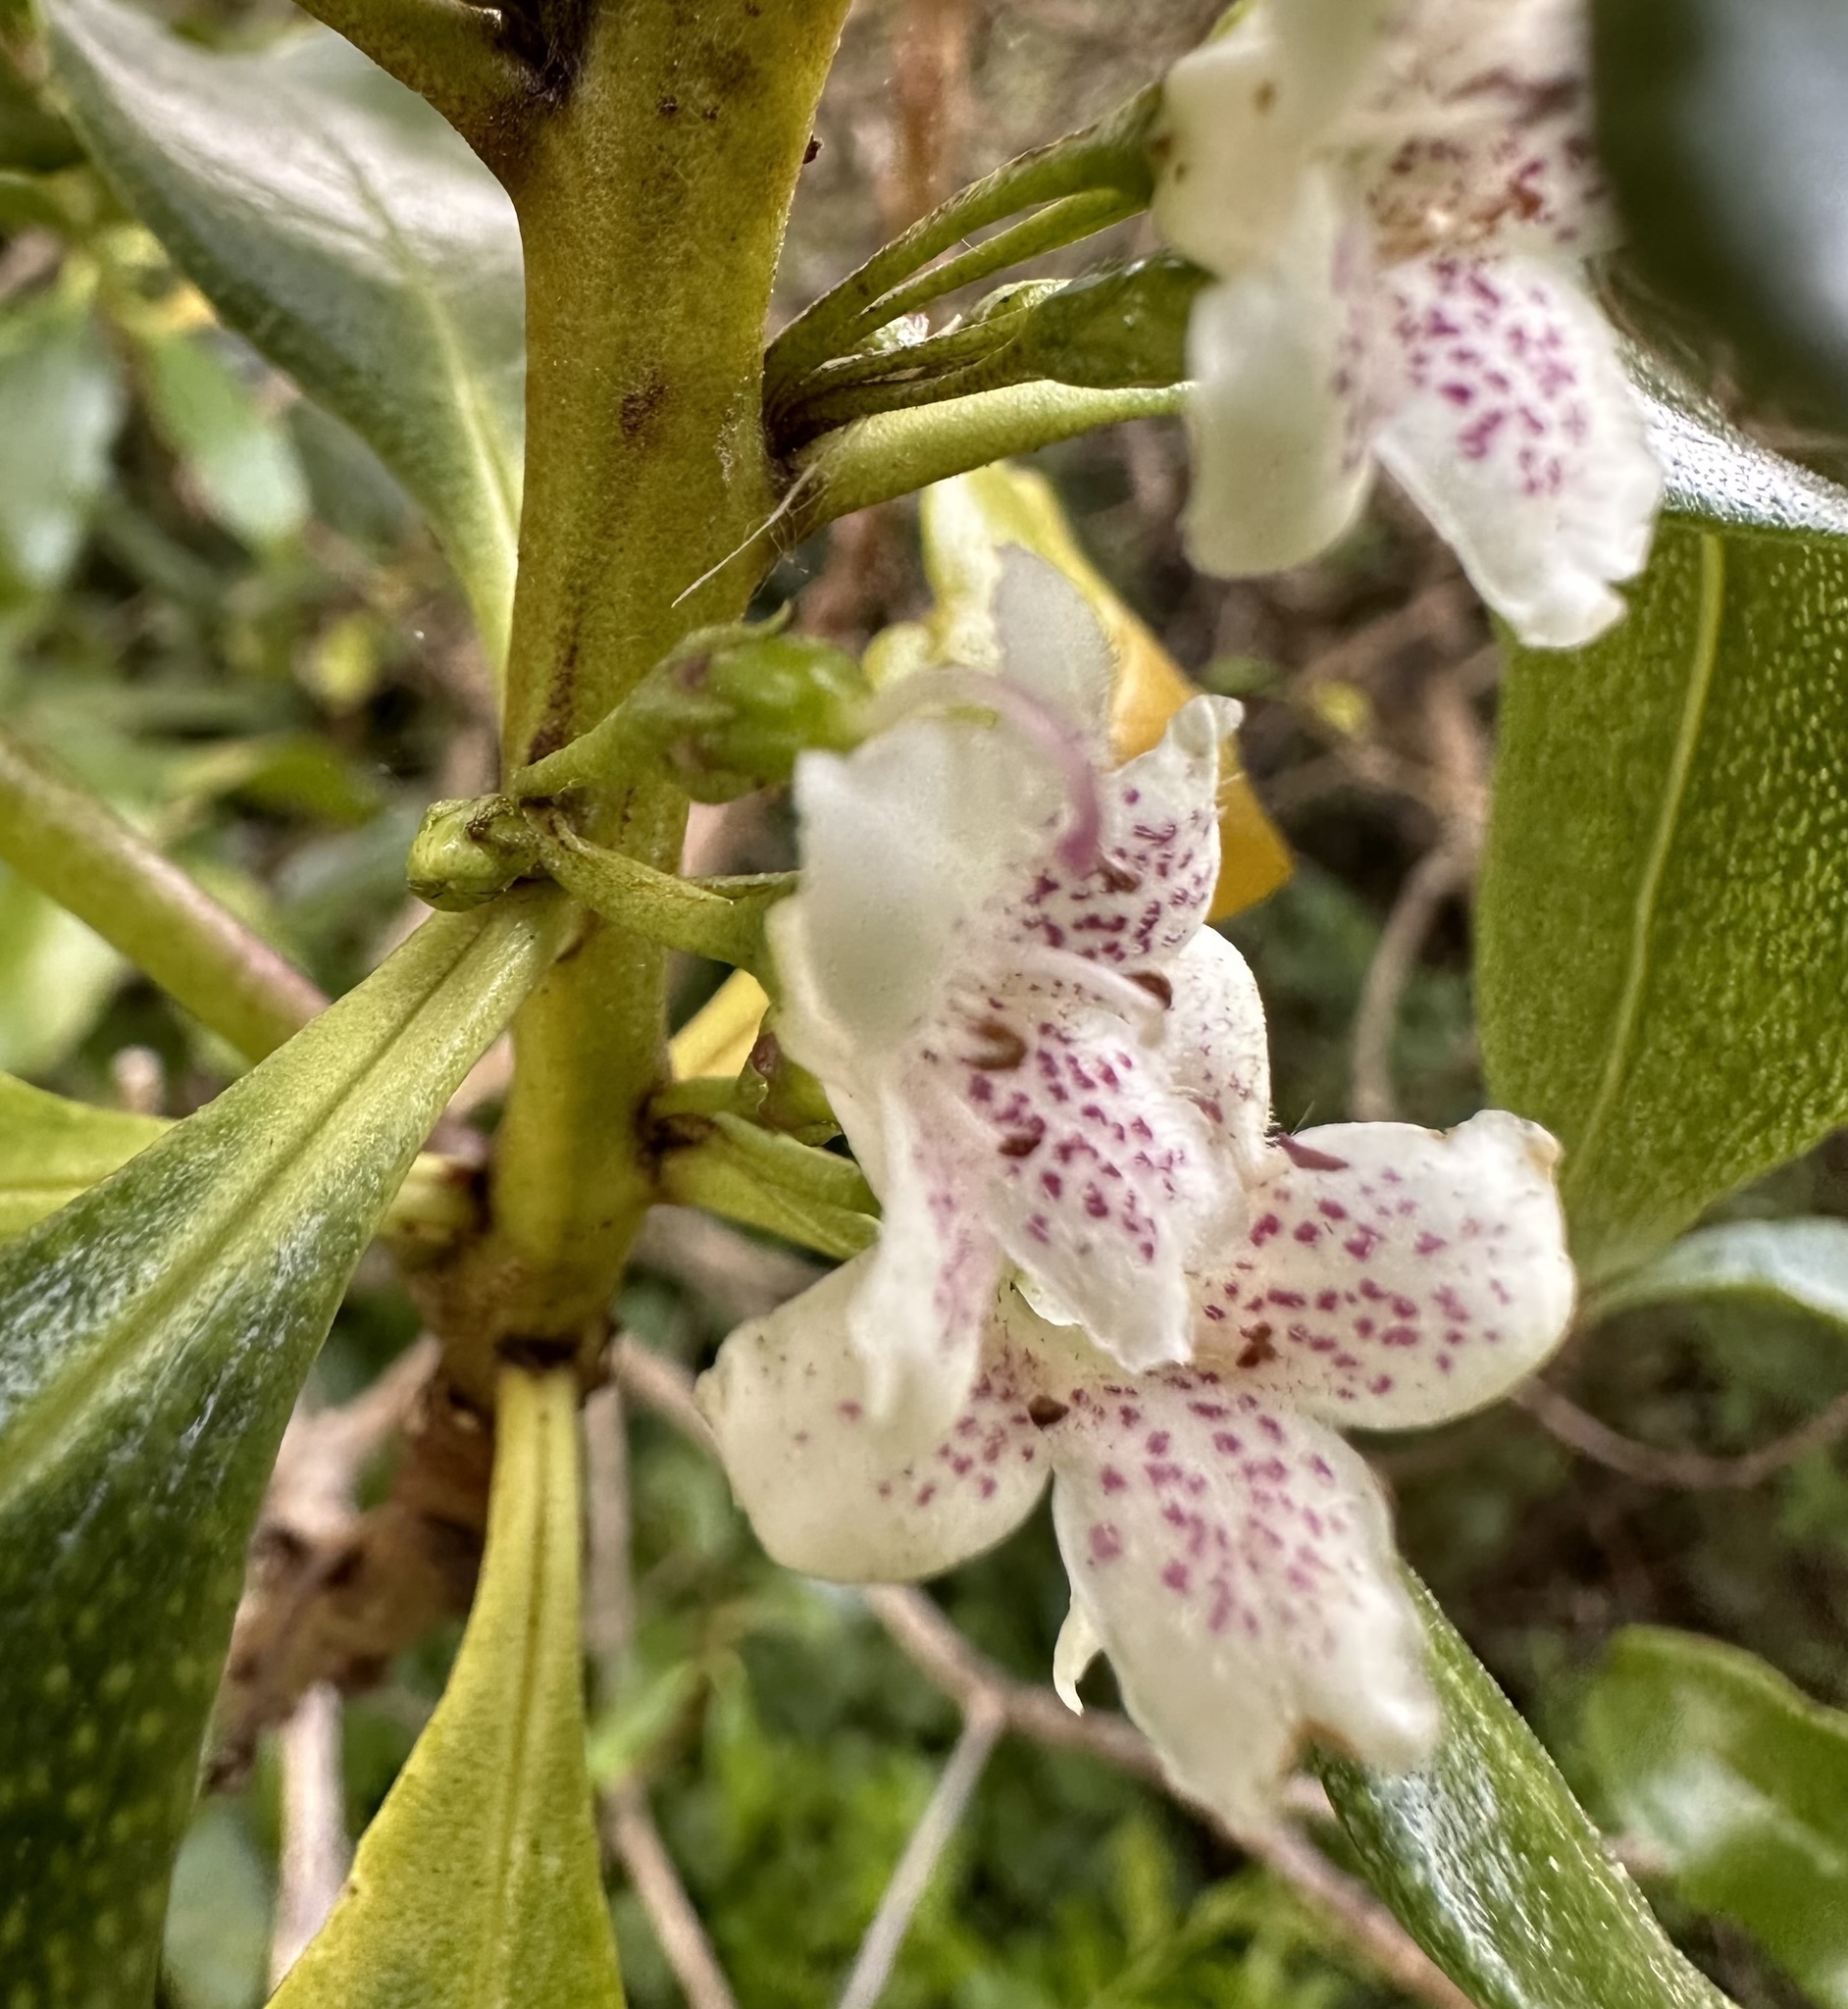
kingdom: Plantae
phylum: Tracheophyta
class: Magnoliopsida
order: Lamiales
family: Scrophulariaceae
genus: Myoporum
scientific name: Myoporum laetum
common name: Ngaio tree
